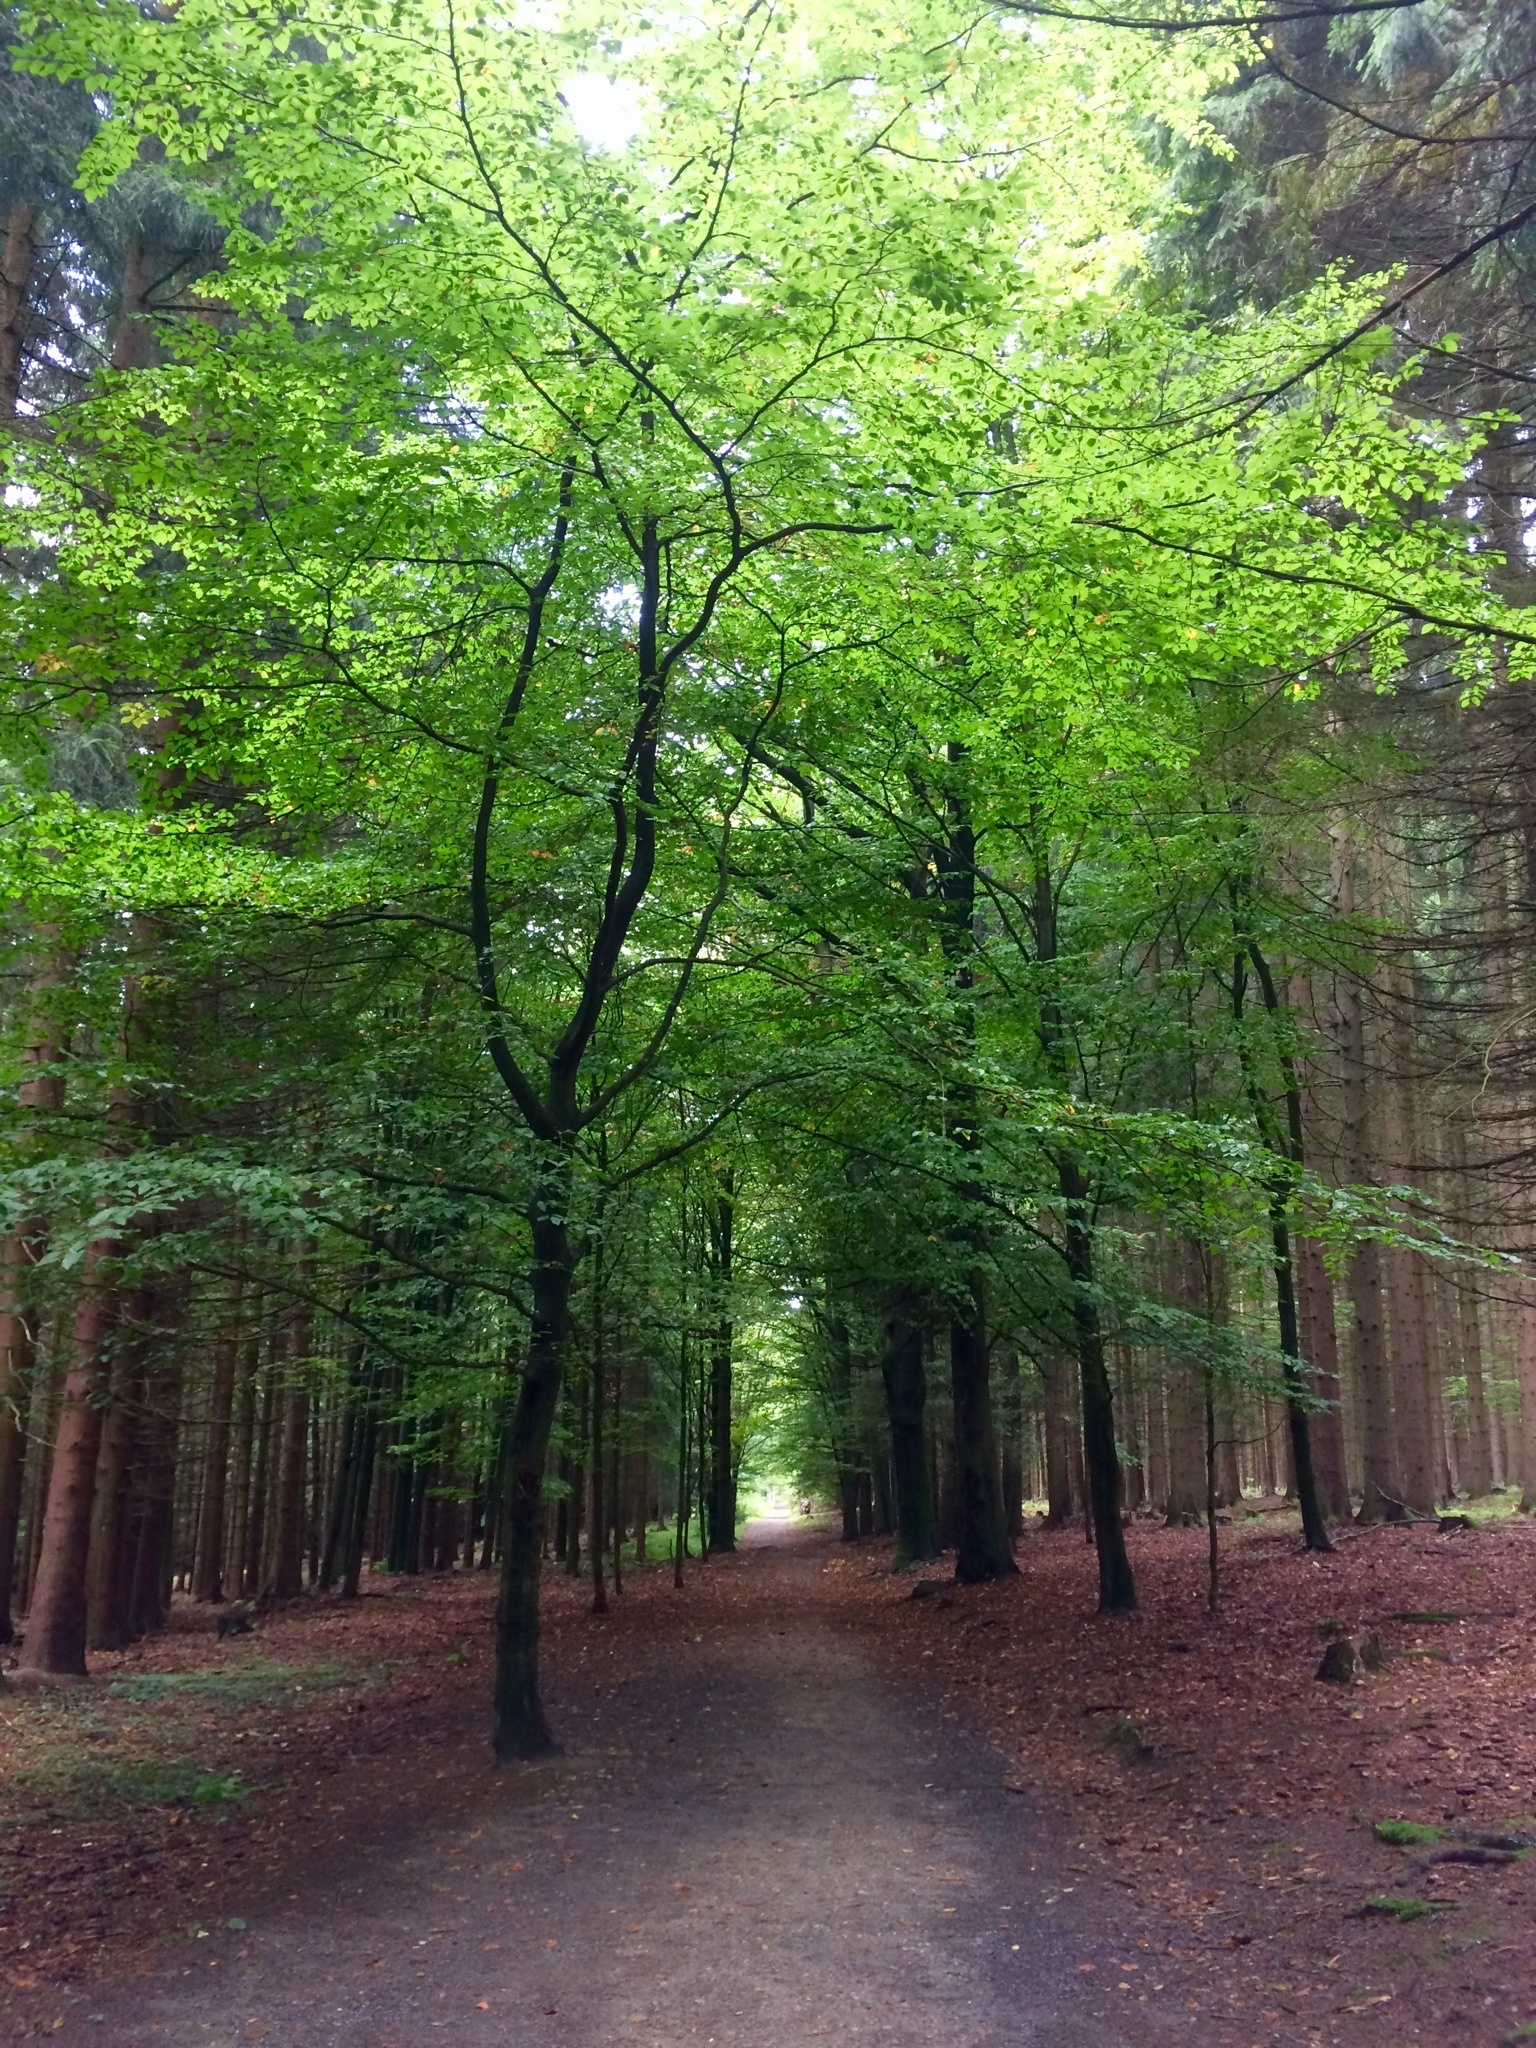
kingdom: Plantae
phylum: Tracheophyta
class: Magnoliopsida
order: Fagales
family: Fagaceae
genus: Fagus
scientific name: Fagus sylvatica
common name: Beech
